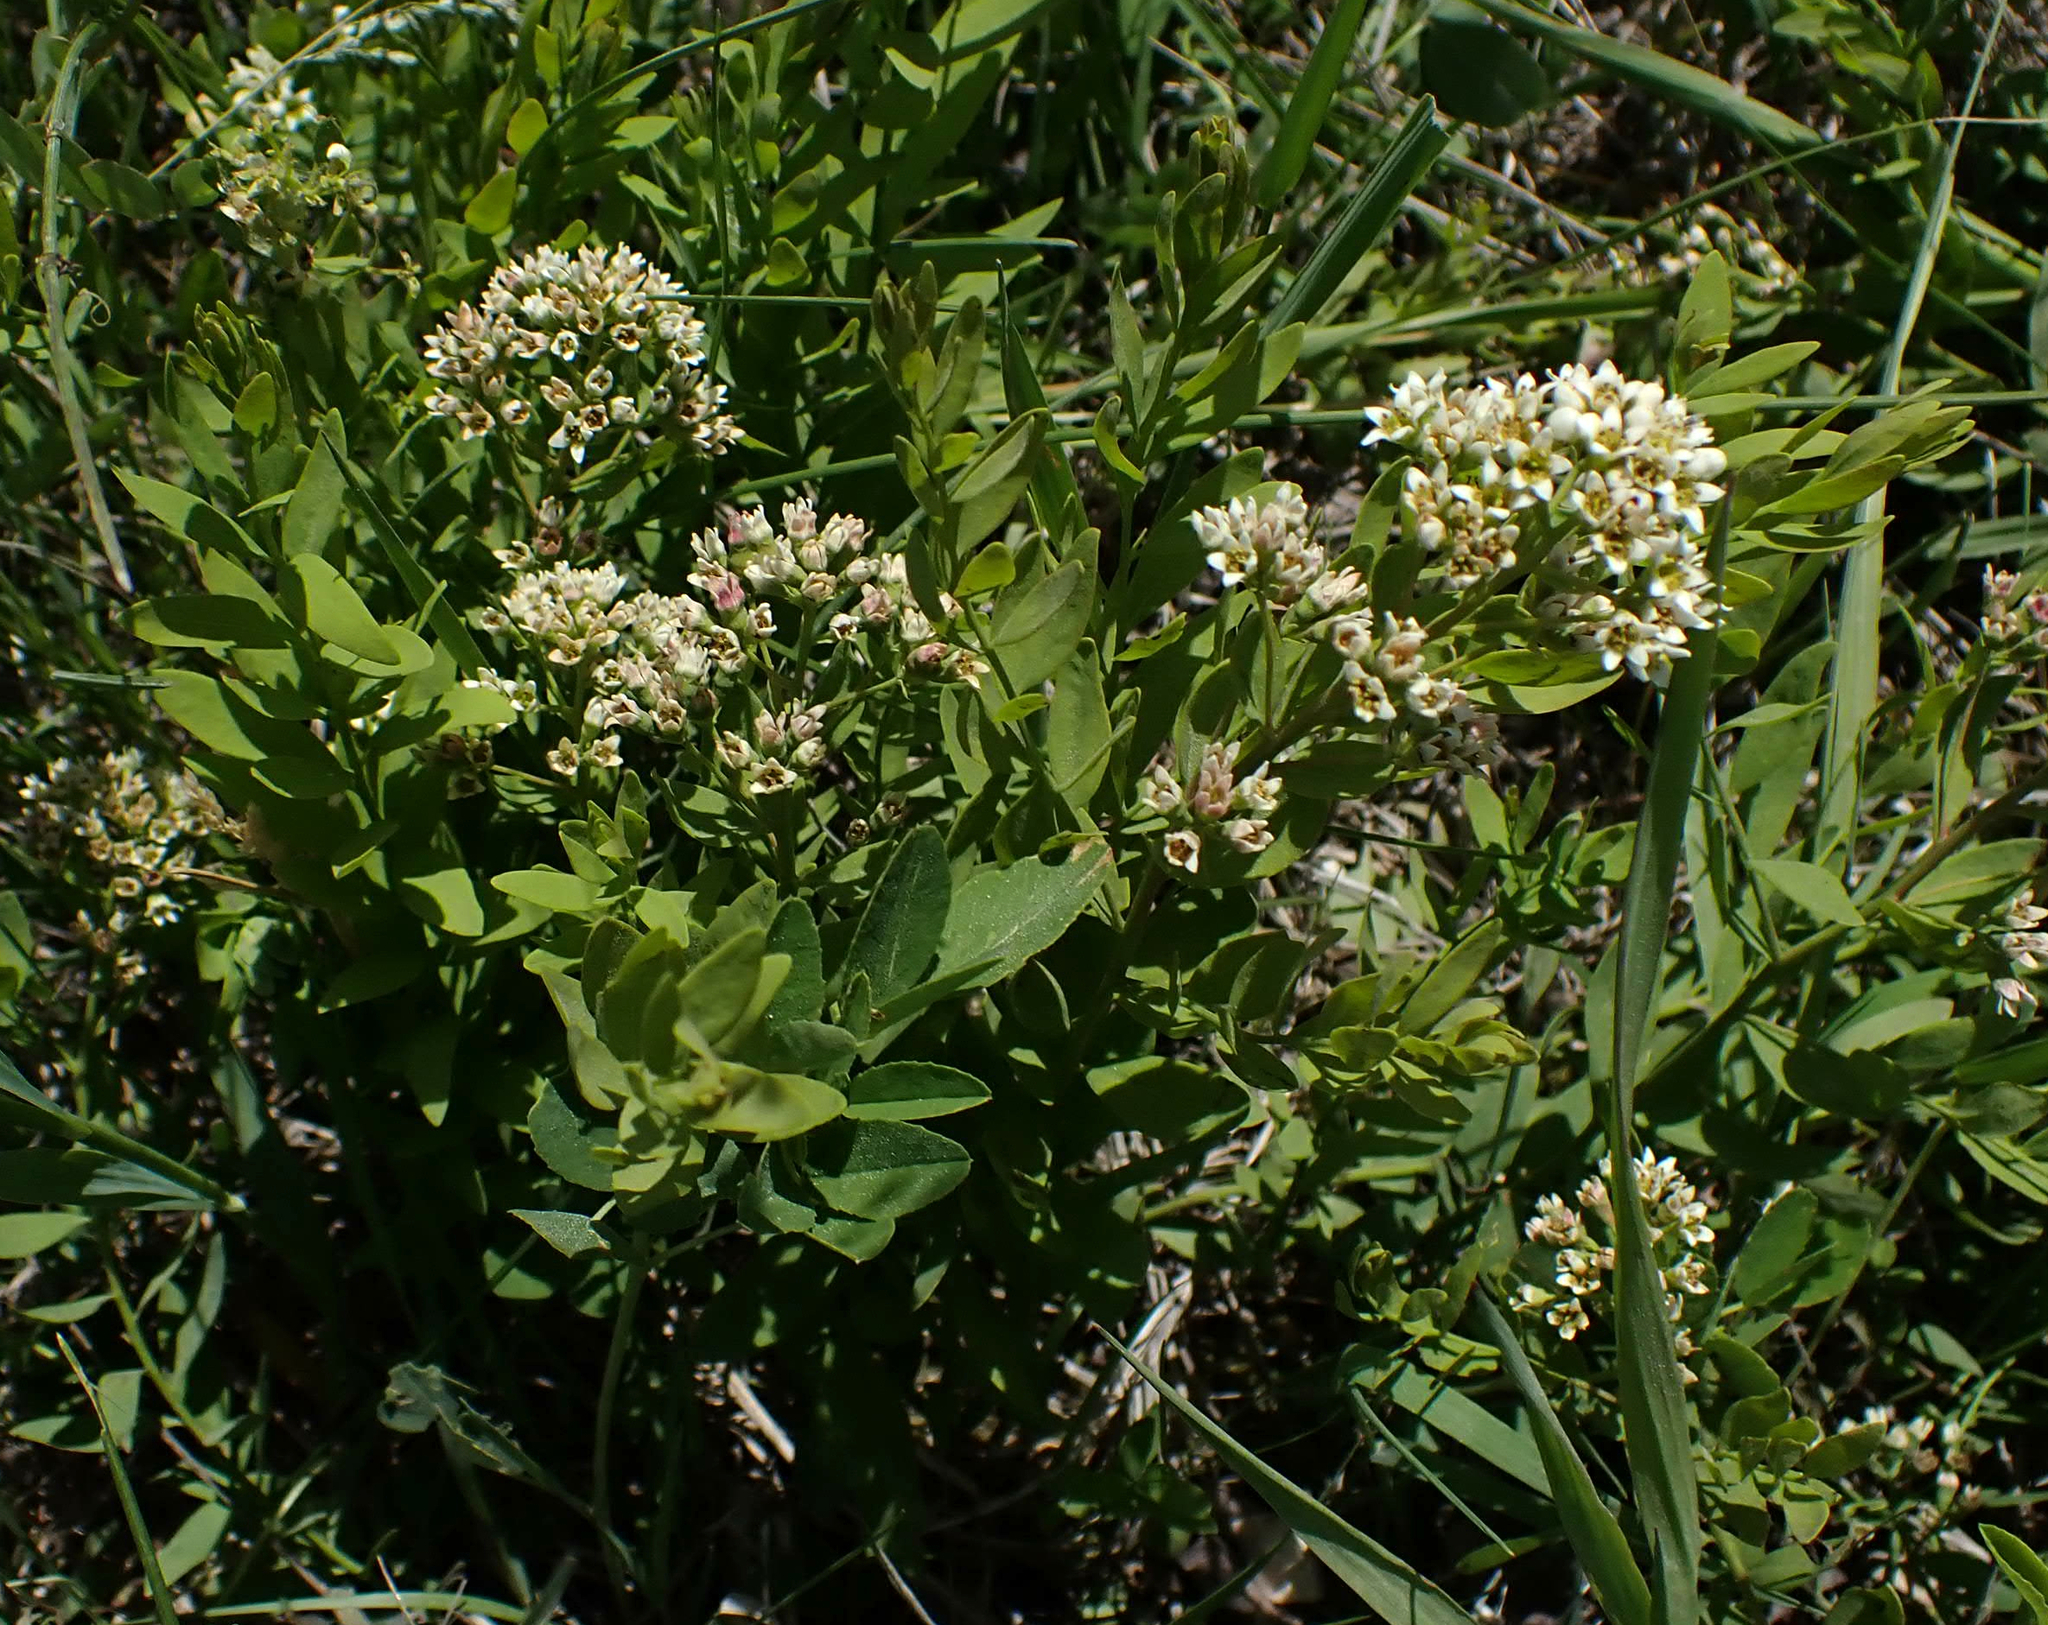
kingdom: Plantae
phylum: Tracheophyta
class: Magnoliopsida
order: Santalales
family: Comandraceae
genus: Comandra
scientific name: Comandra umbellata
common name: Bastard toadflax
